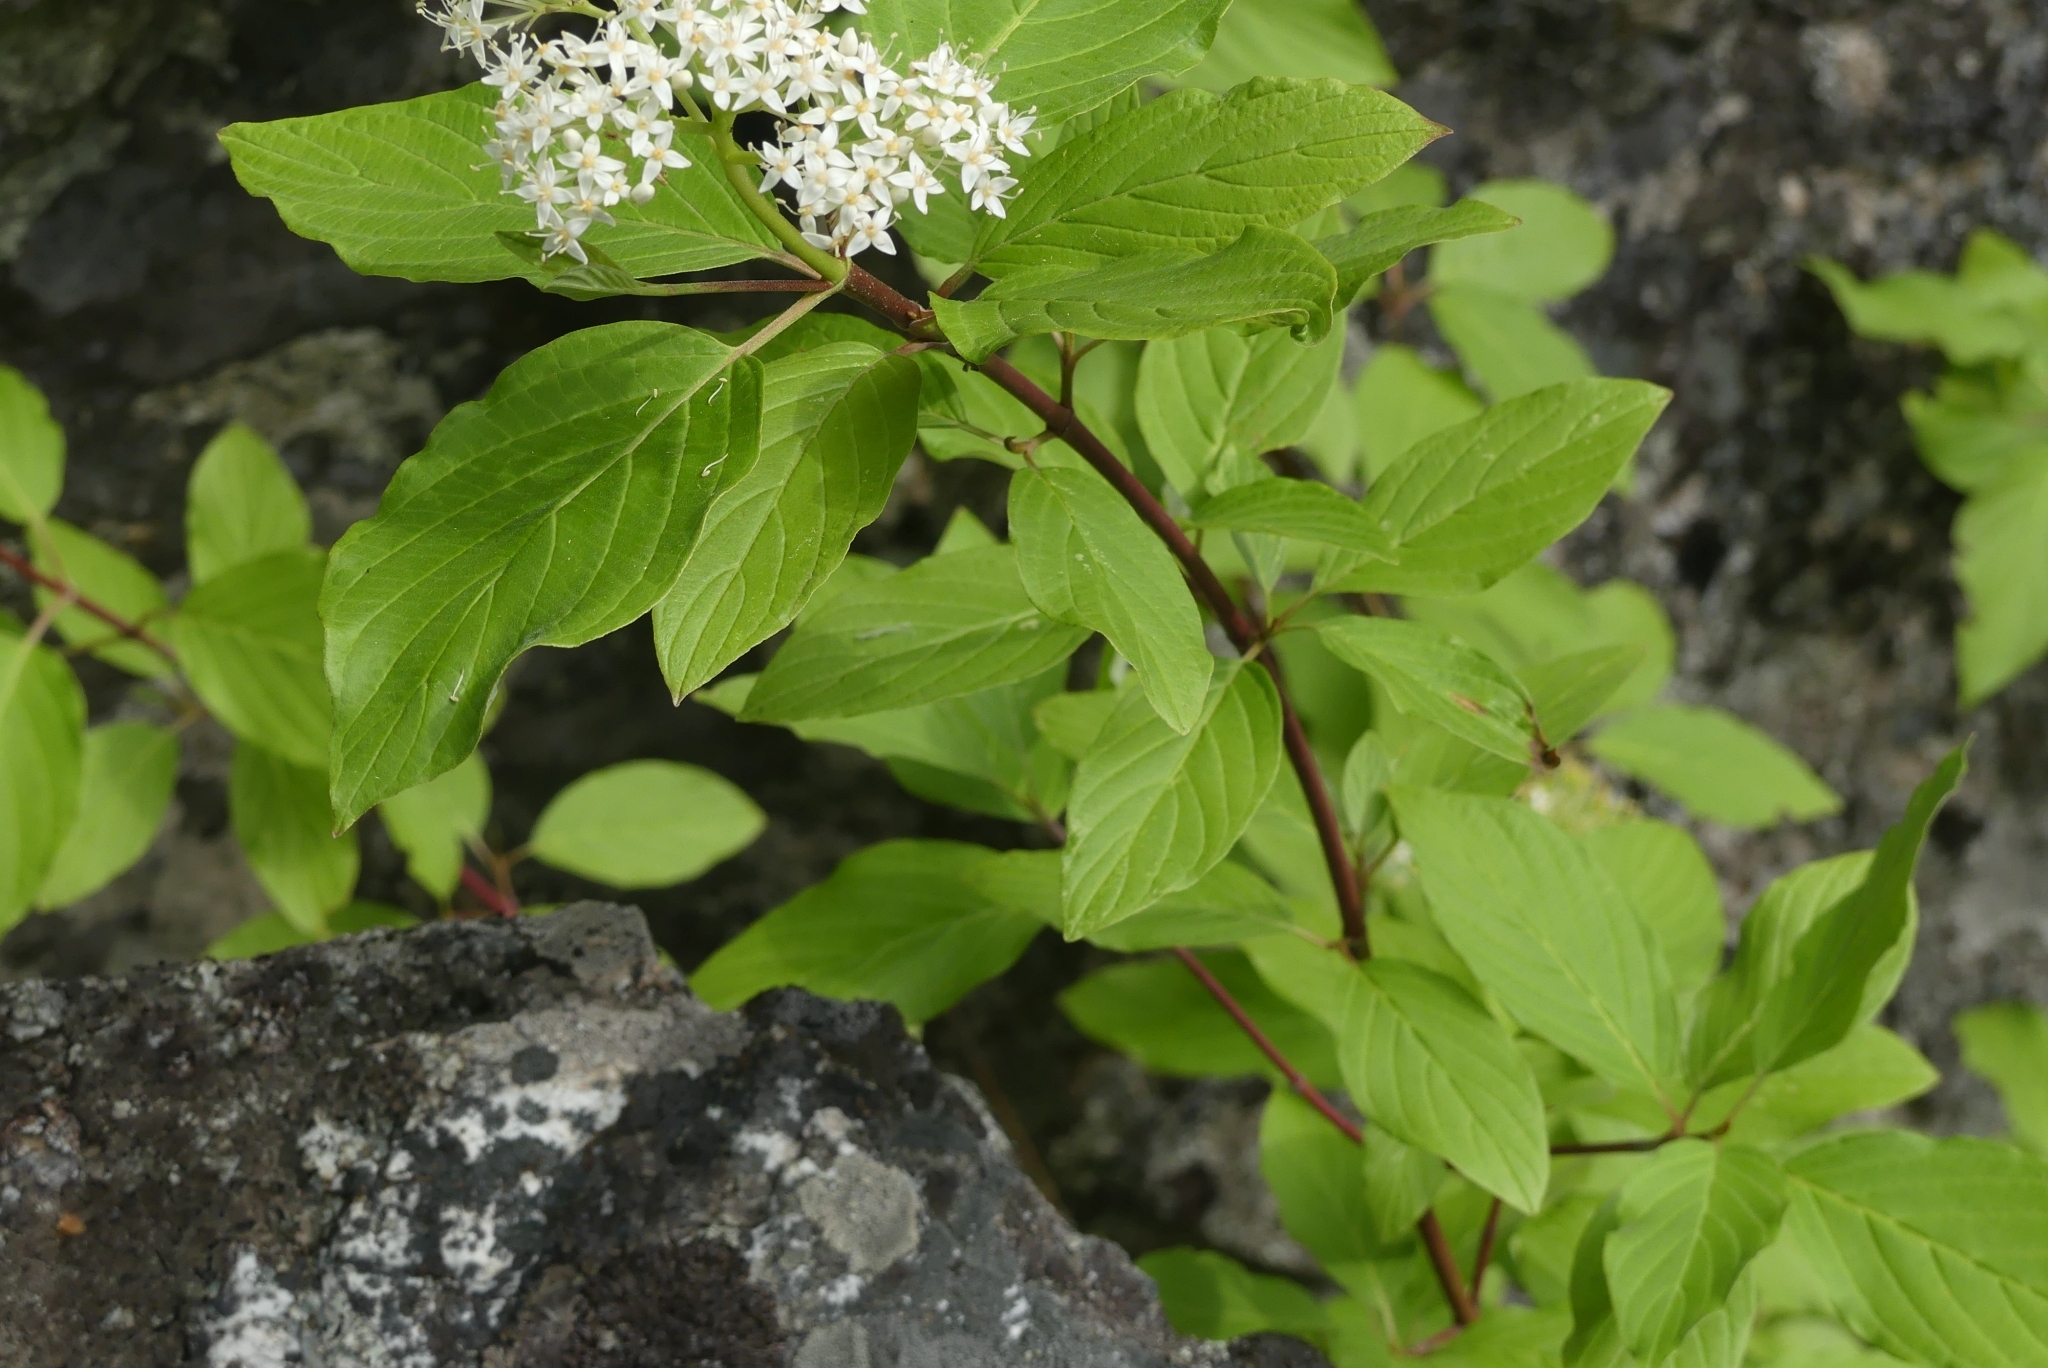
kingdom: Plantae
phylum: Tracheophyta
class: Magnoliopsida
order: Cornales
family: Cornaceae
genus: Cornus
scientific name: Cornus sericea
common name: Red-osier dogwood
